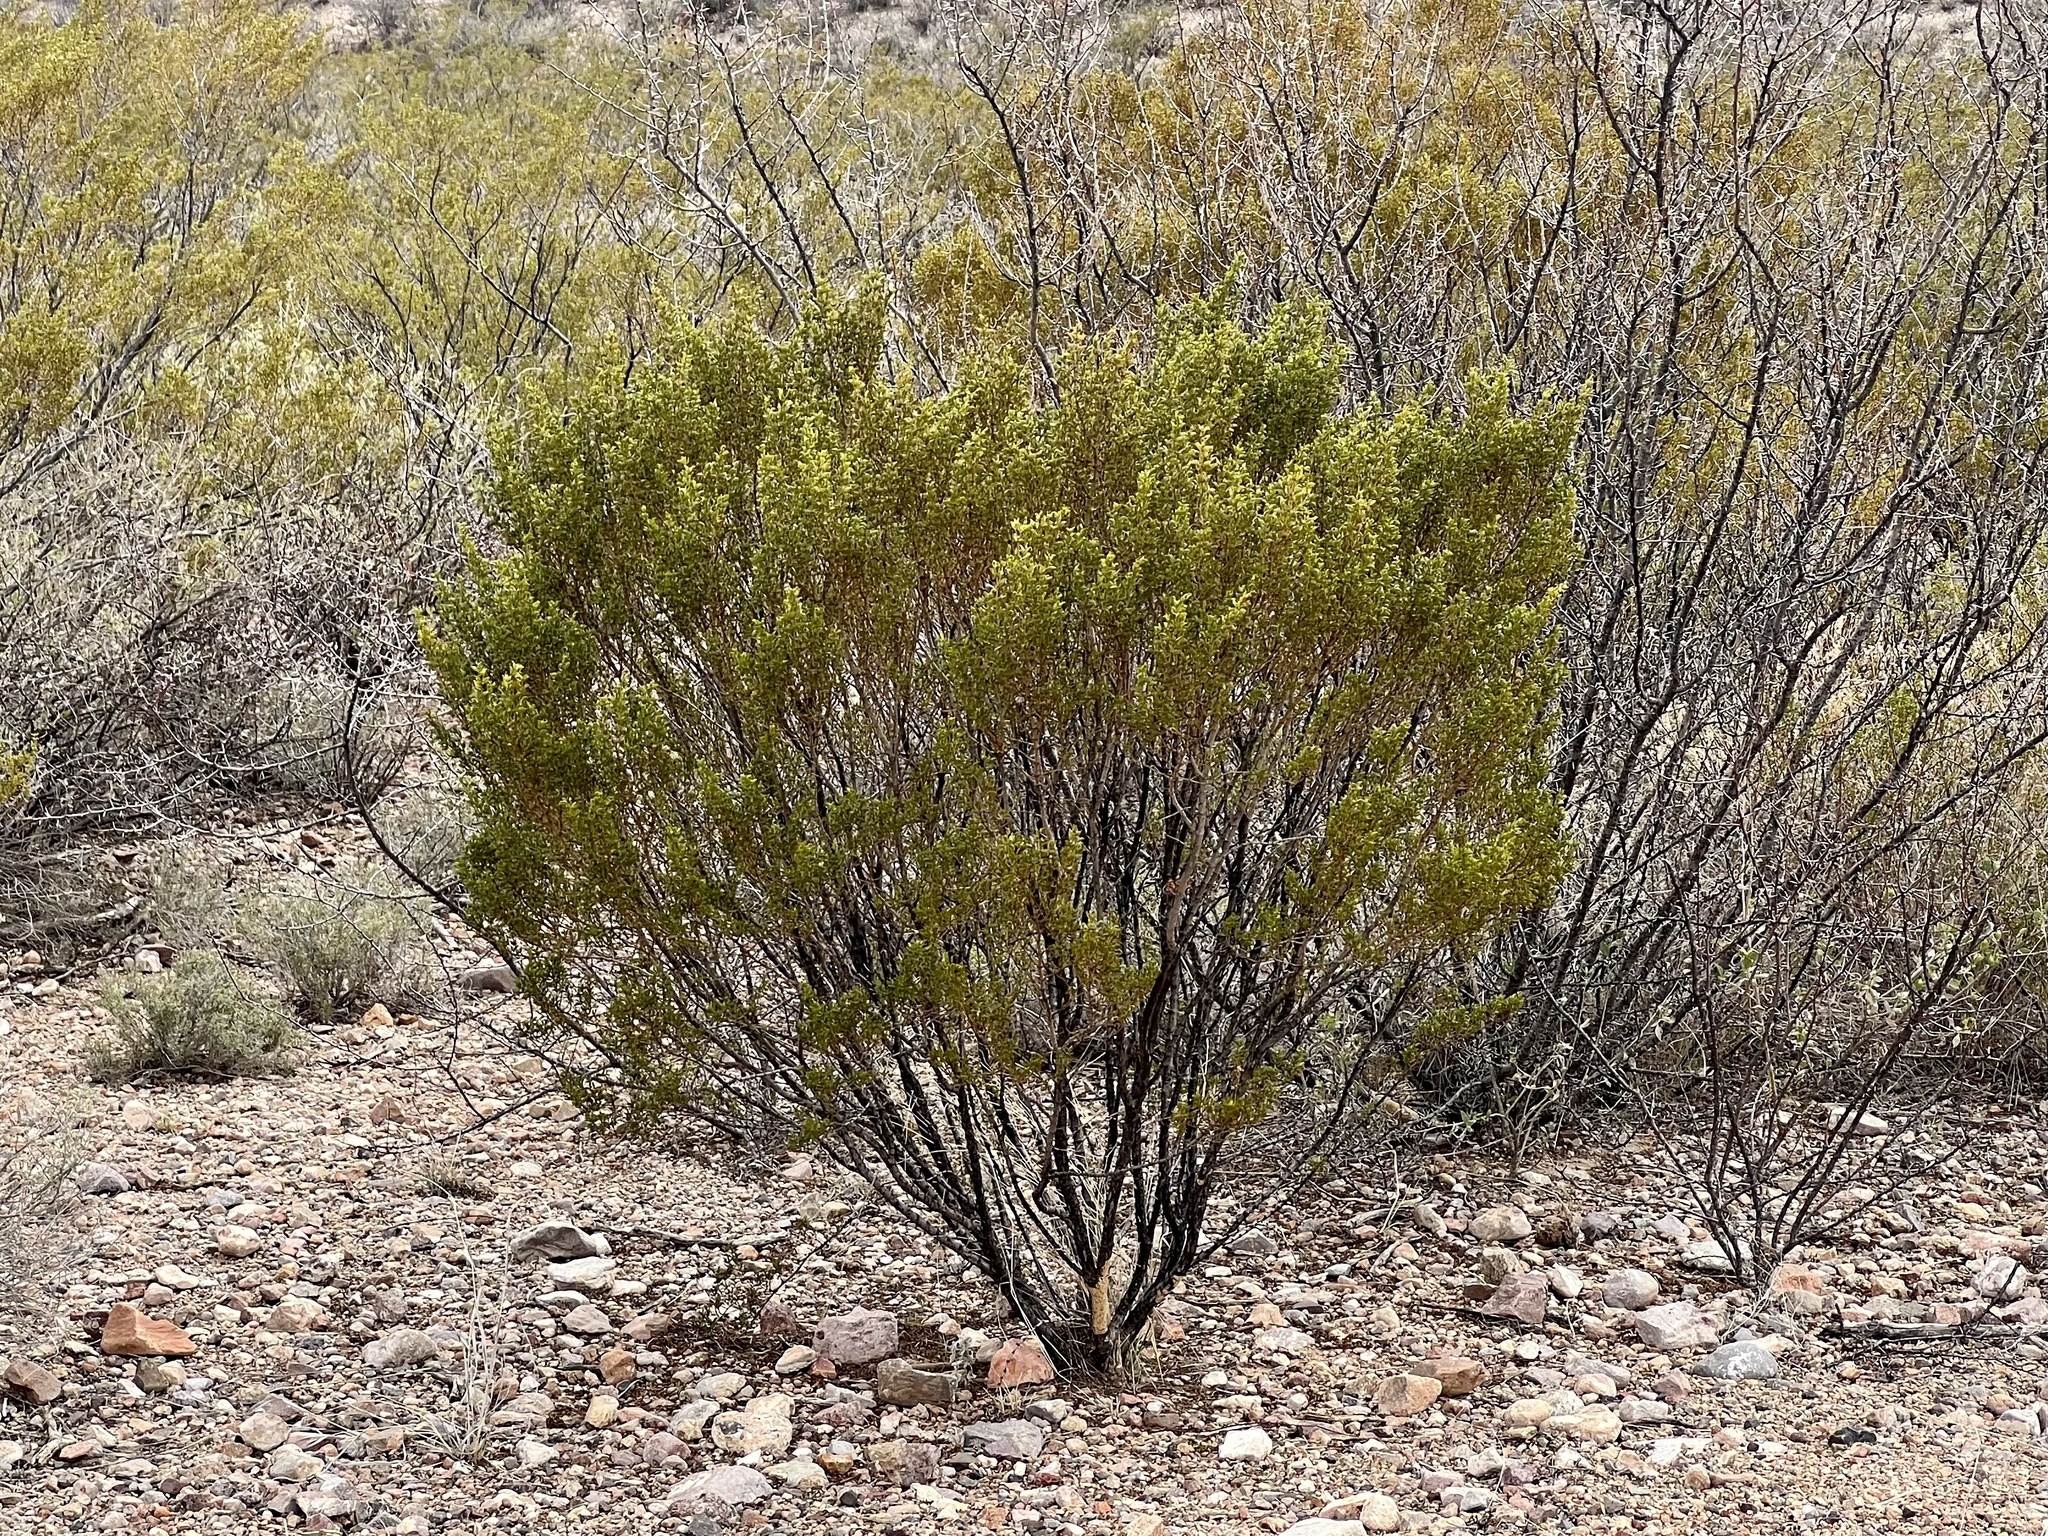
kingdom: Plantae
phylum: Tracheophyta
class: Magnoliopsida
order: Zygophyllales
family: Zygophyllaceae
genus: Larrea
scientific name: Larrea tridentata
